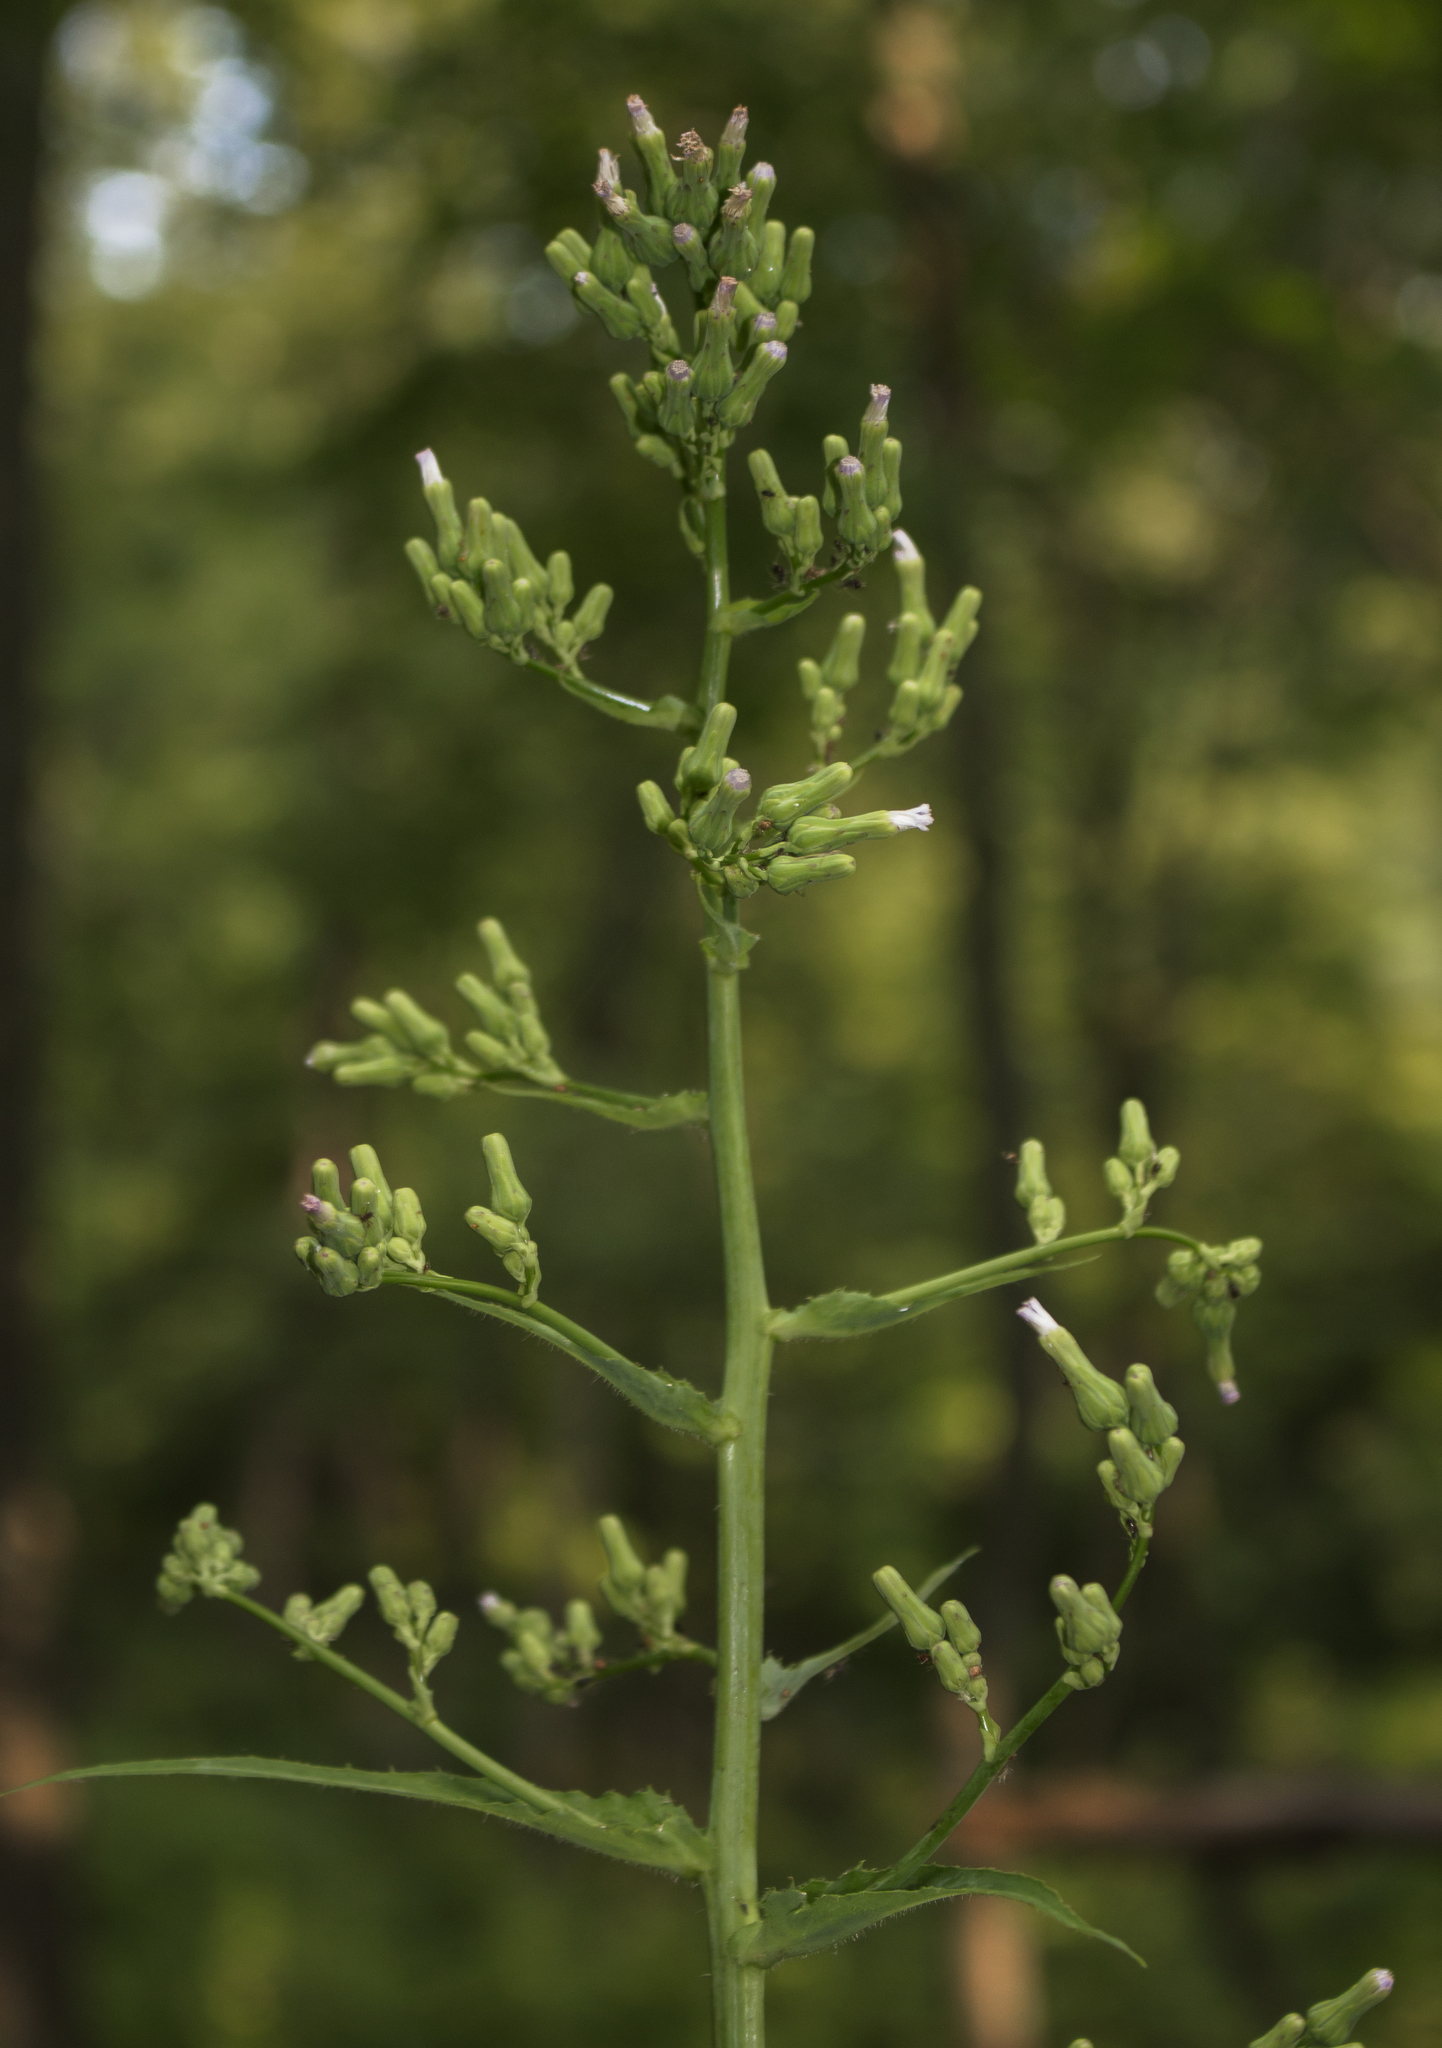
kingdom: Plantae
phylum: Tracheophyta
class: Magnoliopsida
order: Asterales
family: Asteraceae
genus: Lactuca
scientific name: Lactuca biennis
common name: Blue wood lettuce
